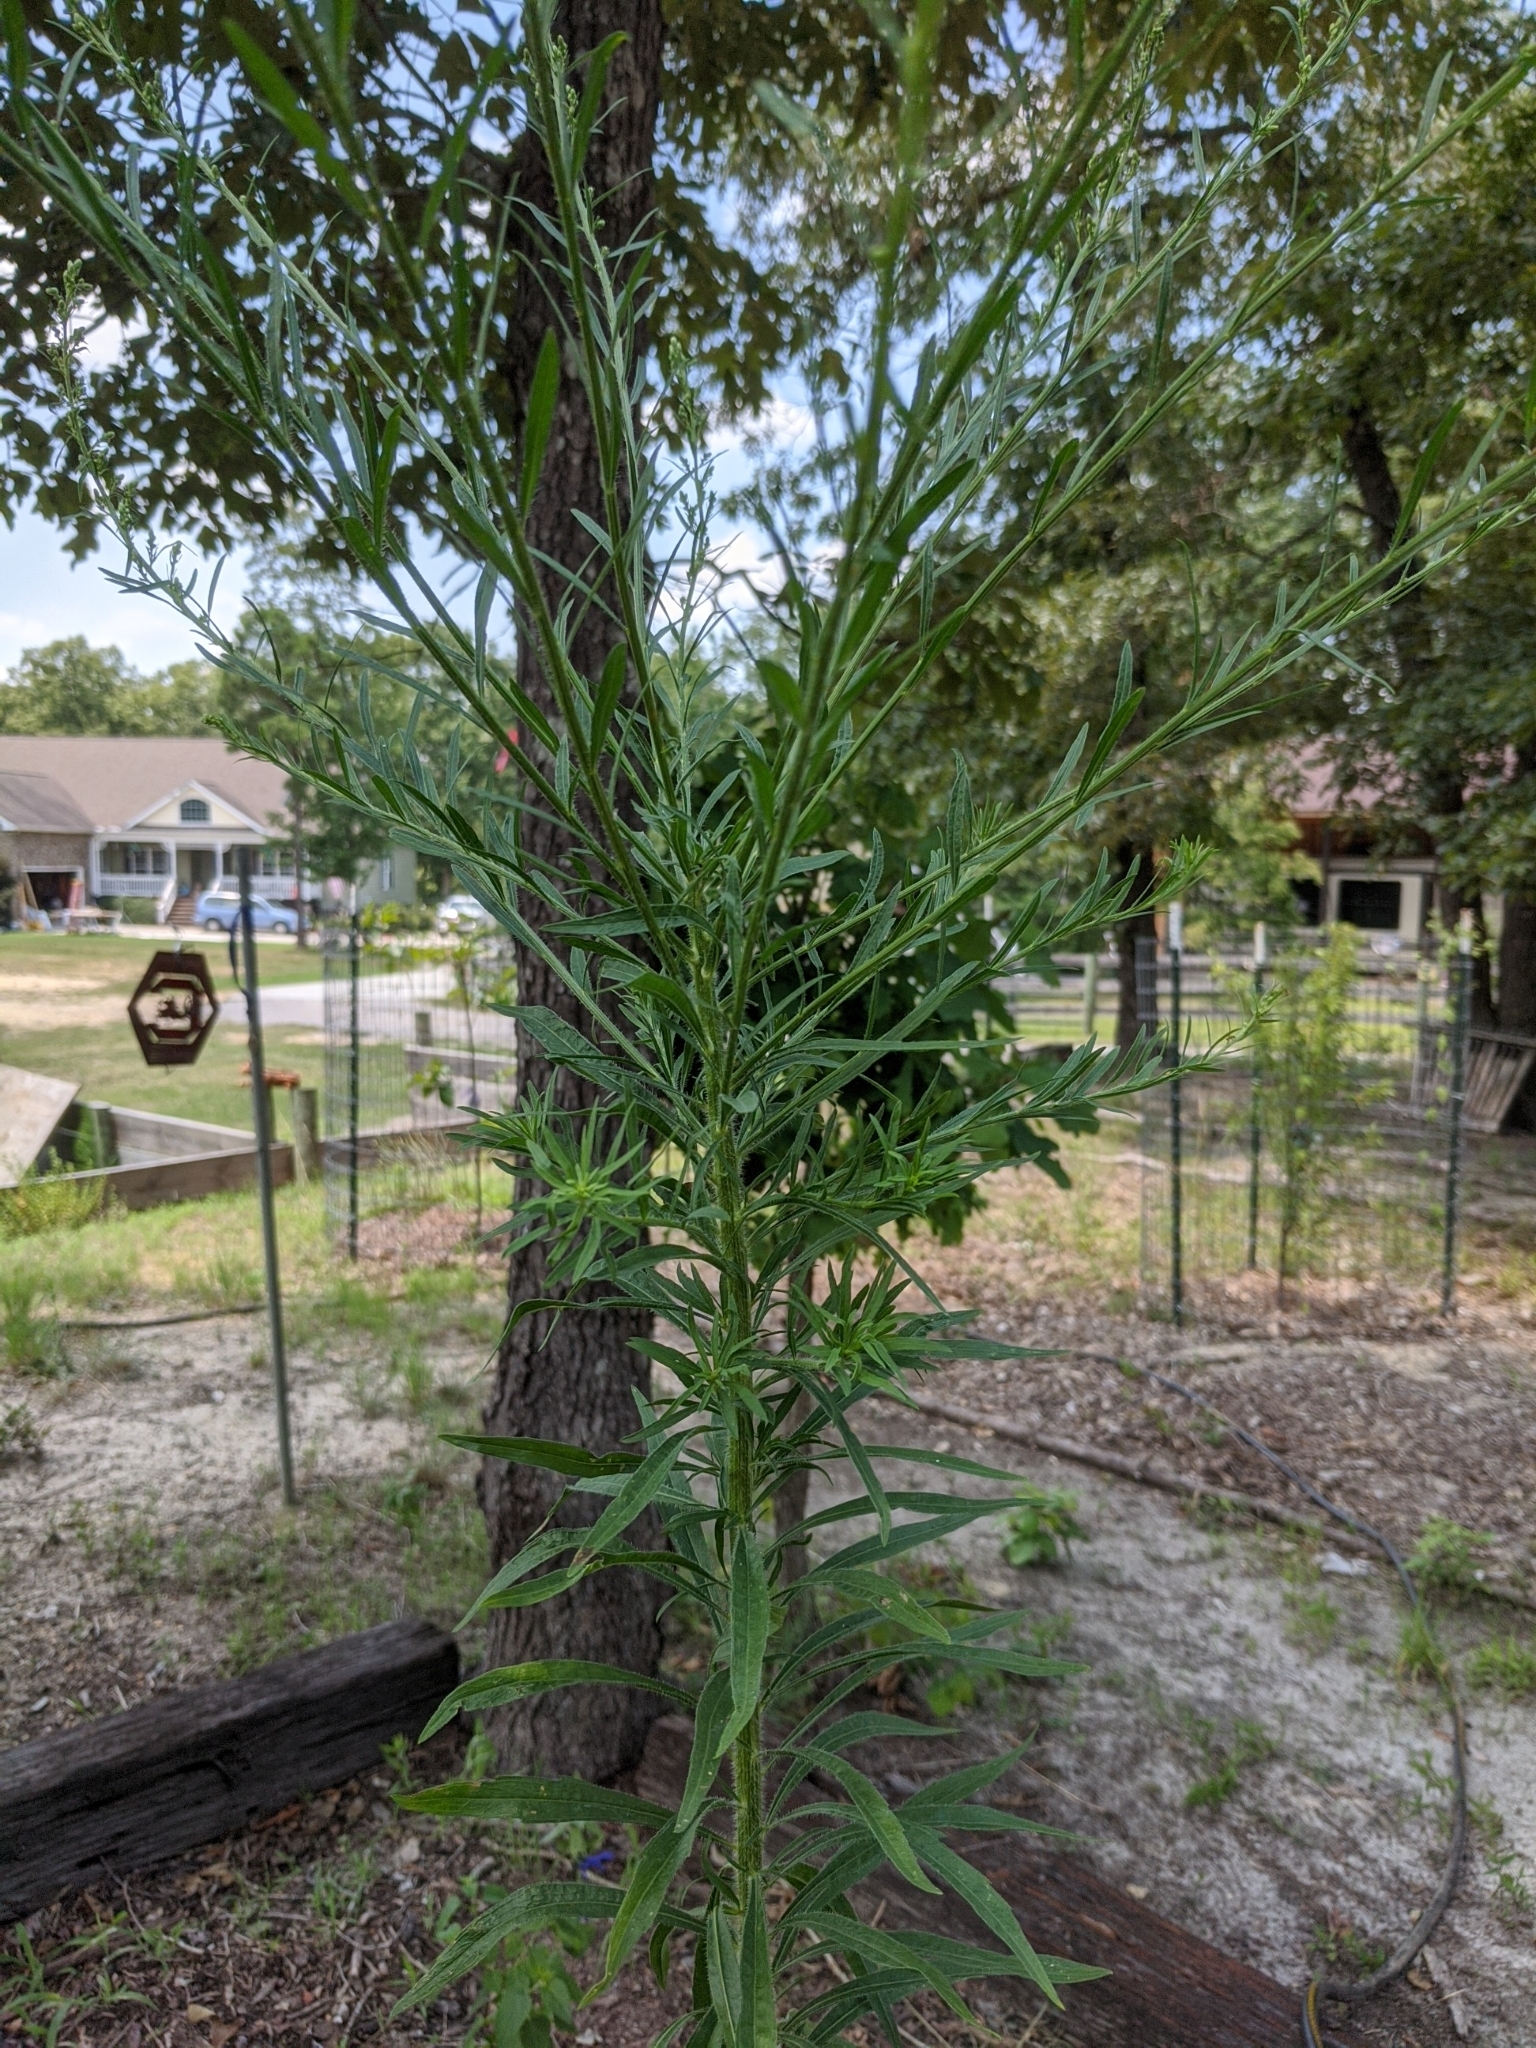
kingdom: Plantae
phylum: Tracheophyta
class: Magnoliopsida
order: Asterales
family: Asteraceae
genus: Erigeron
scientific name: Erigeron canadensis
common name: Canadian fleabane
